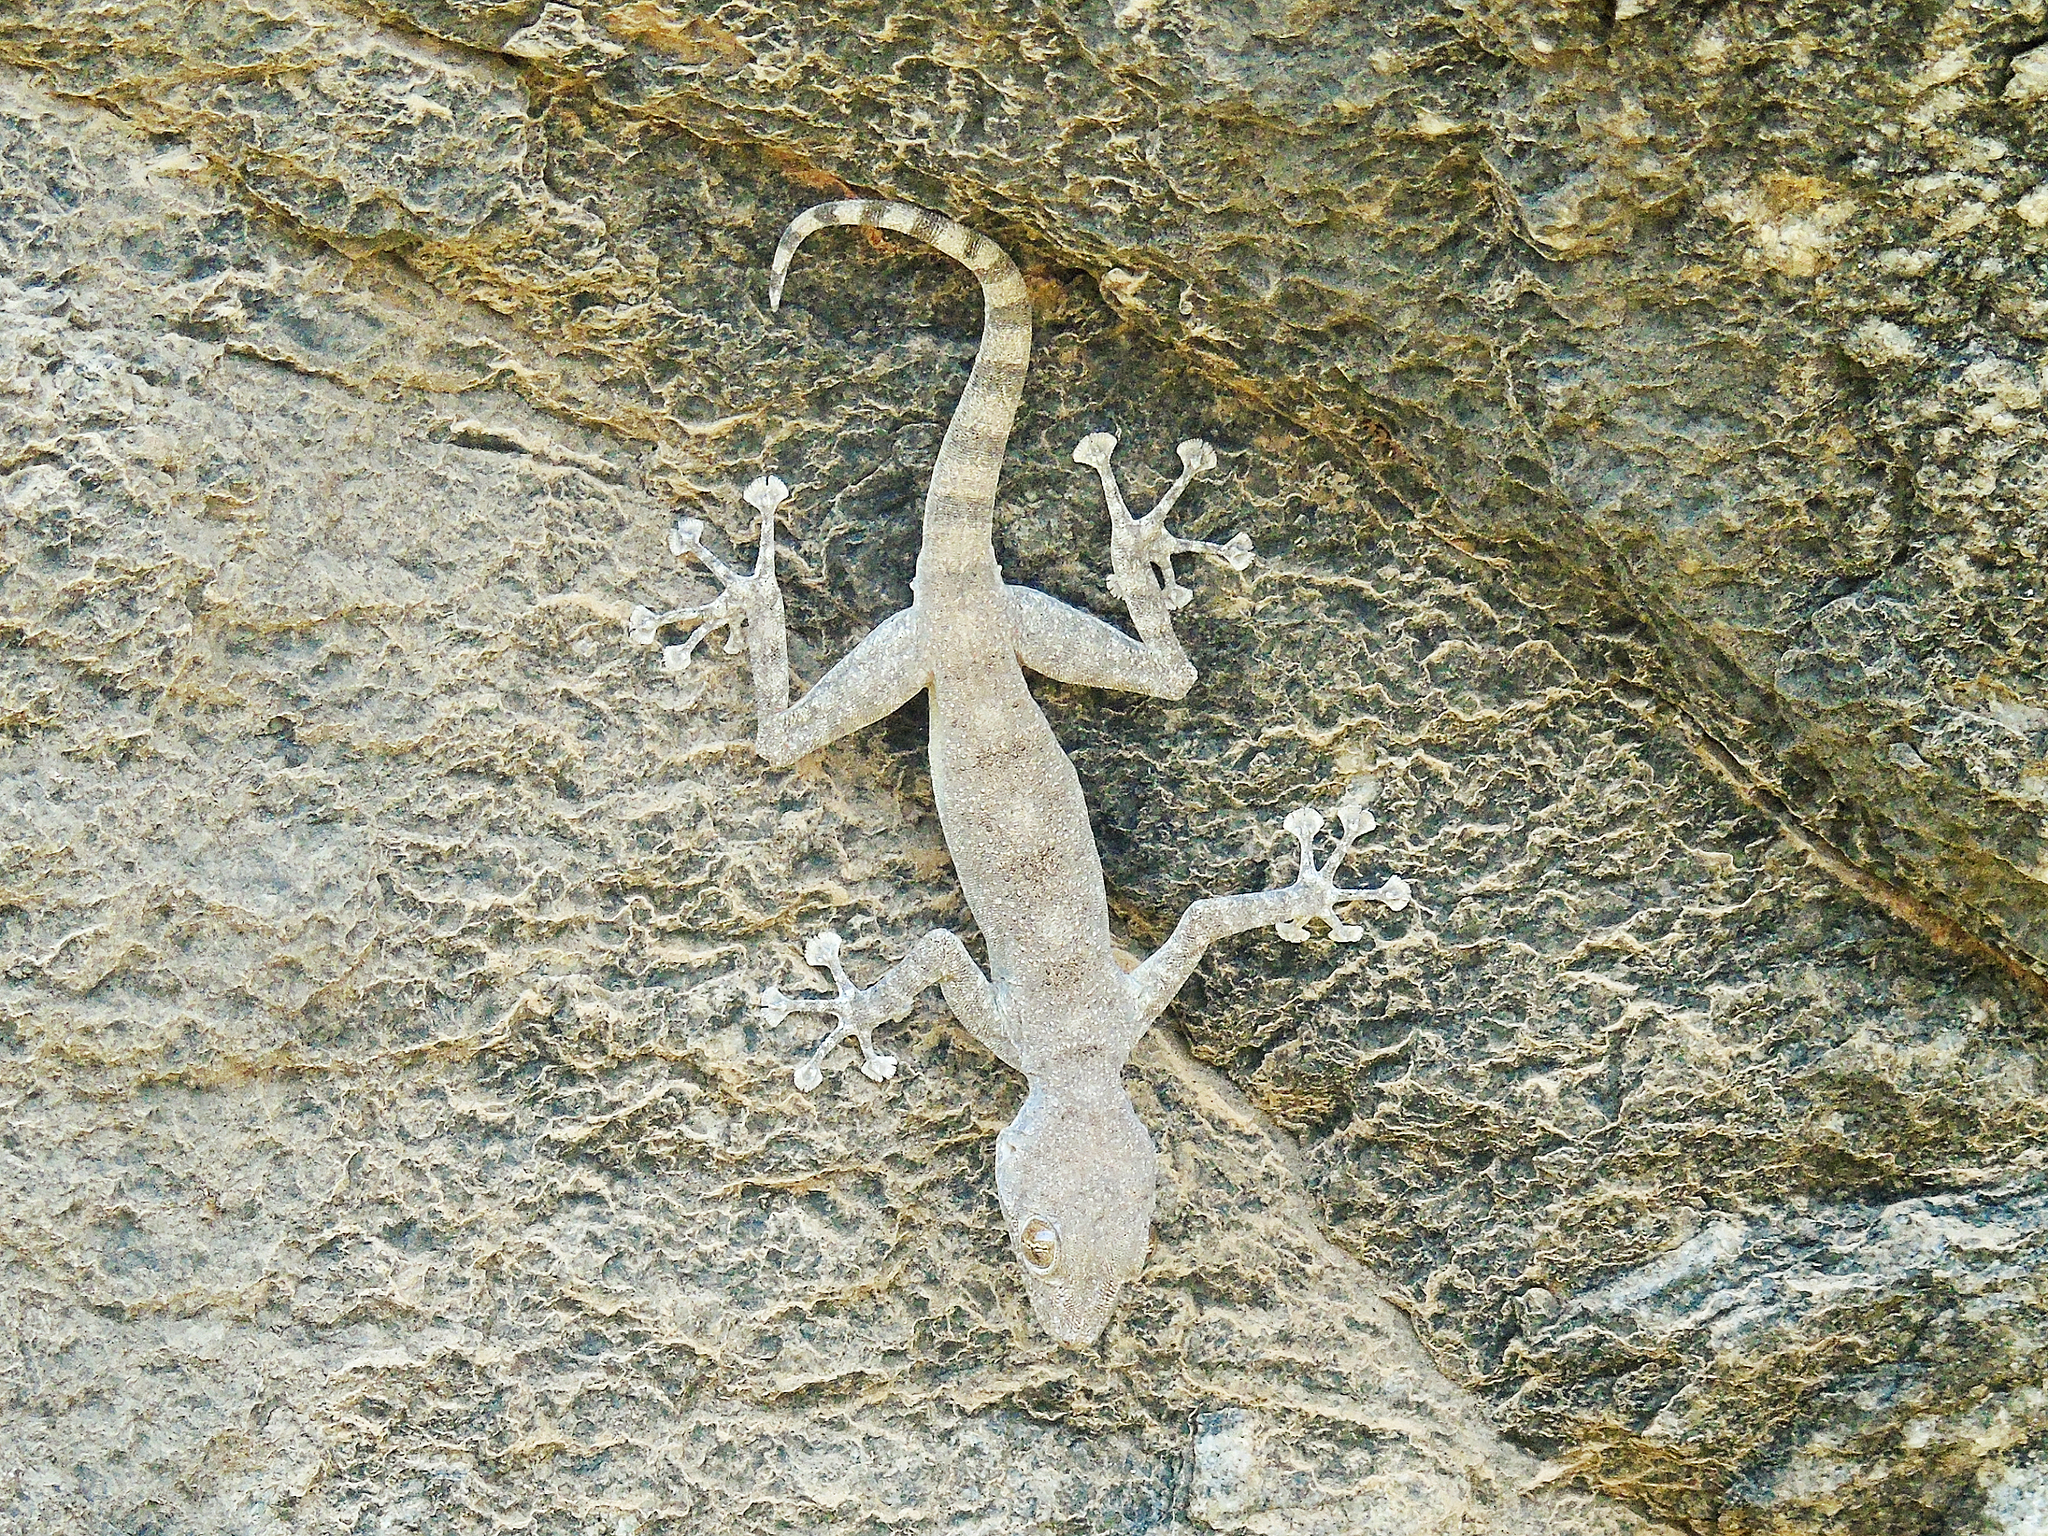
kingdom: Animalia
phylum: Chordata
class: Squamata
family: Phyllodactylidae
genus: Ptyodactylus
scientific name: Ptyodactylus dhofarensis
